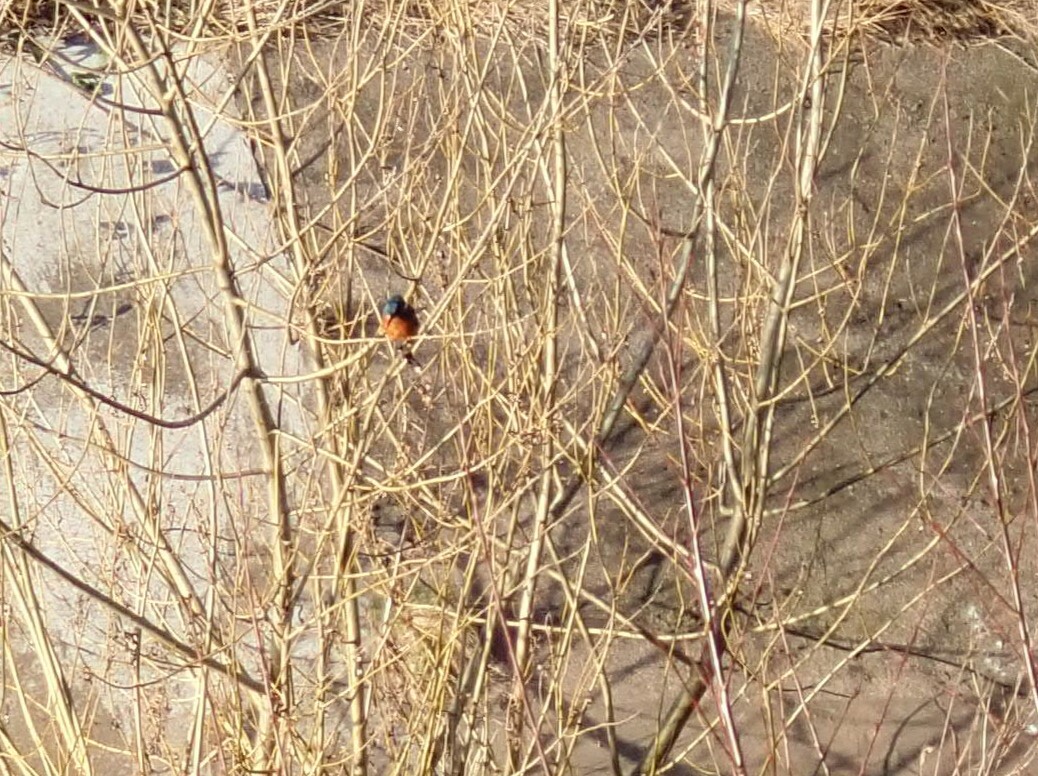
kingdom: Animalia
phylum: Chordata
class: Aves
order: Coraciiformes
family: Alcedinidae
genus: Alcedo
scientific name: Alcedo atthis
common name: Common kingfisher
